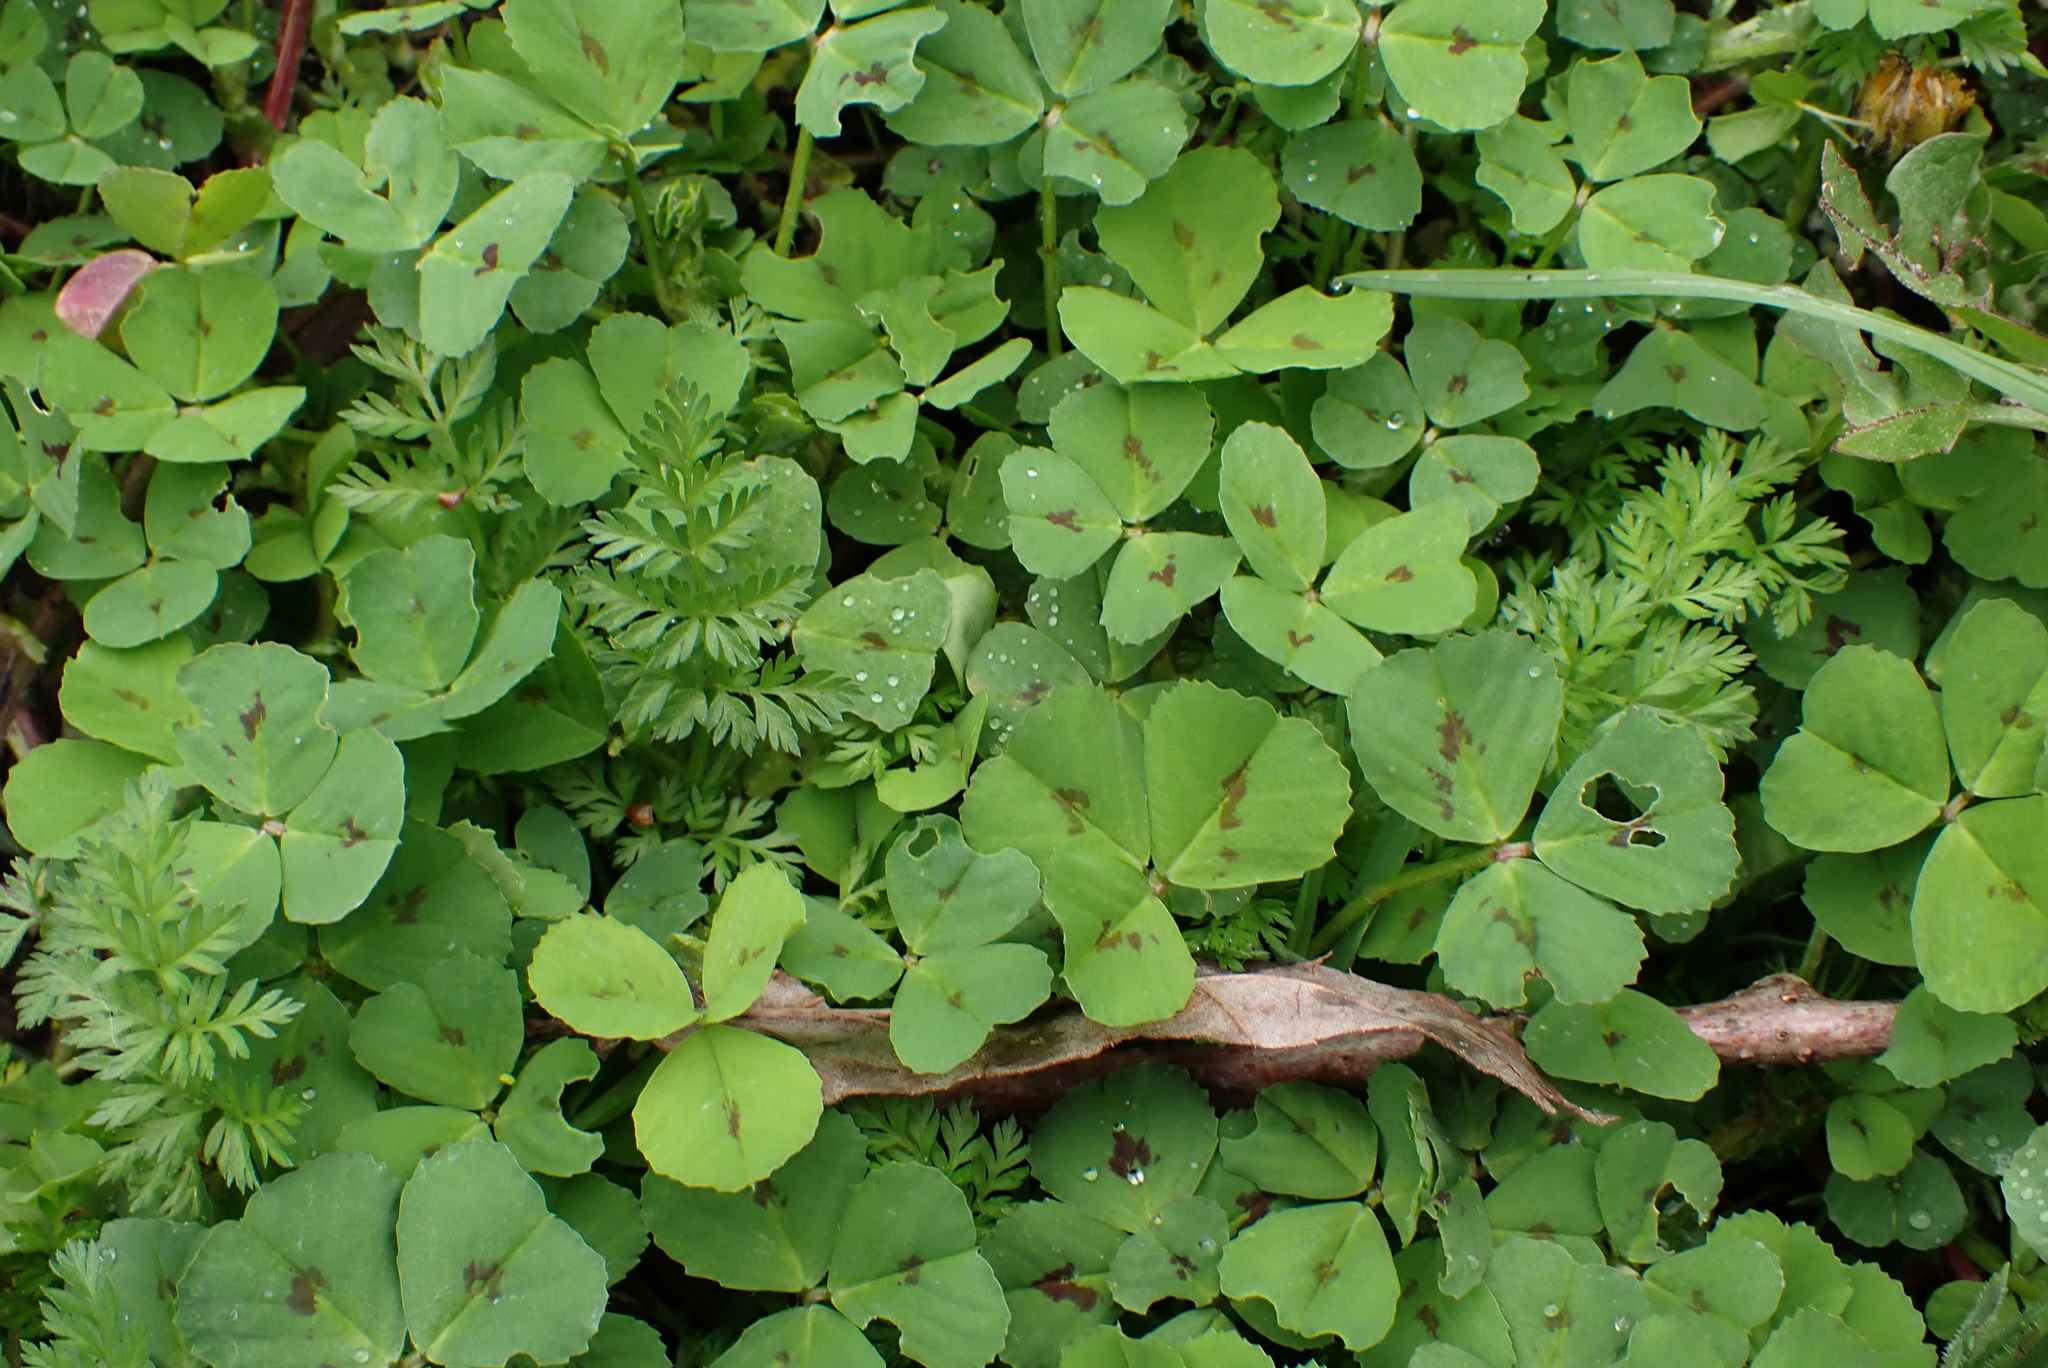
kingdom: Plantae
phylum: Tracheophyta
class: Magnoliopsida
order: Fabales
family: Fabaceae
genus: Medicago
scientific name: Medicago arabica
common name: Spotted medick
